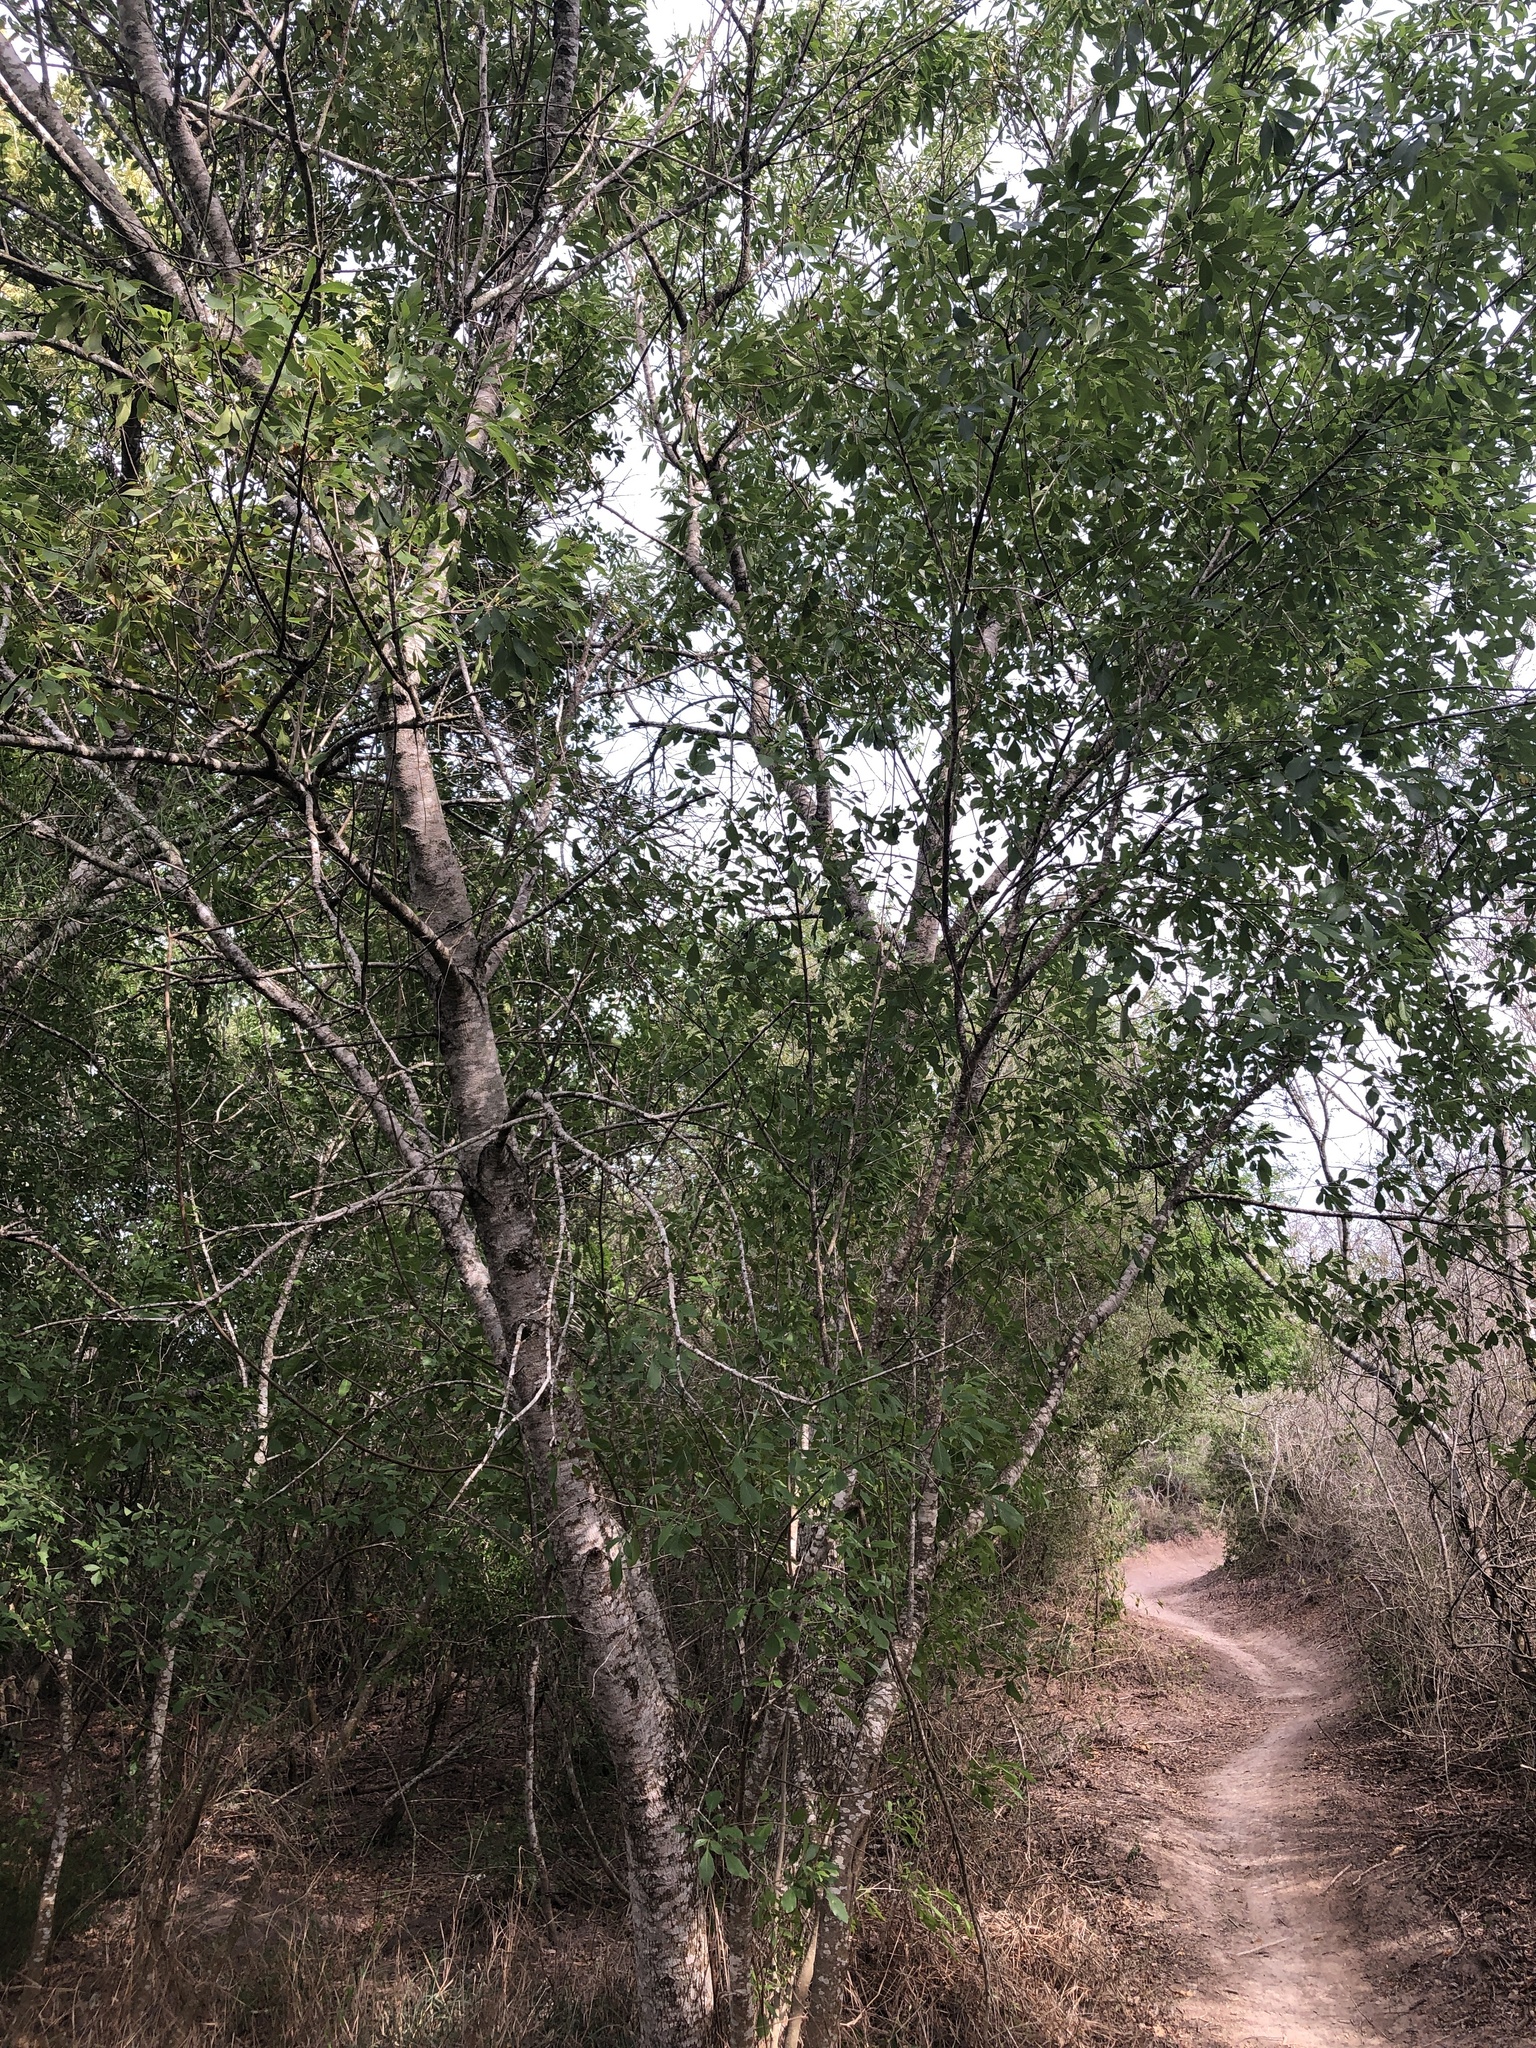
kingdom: Plantae
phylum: Tracheophyta
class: Magnoliopsida
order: Lamiales
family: Oleaceae
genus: Fraxinus
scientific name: Fraxinus berlandieriana
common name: Berlandier ash
